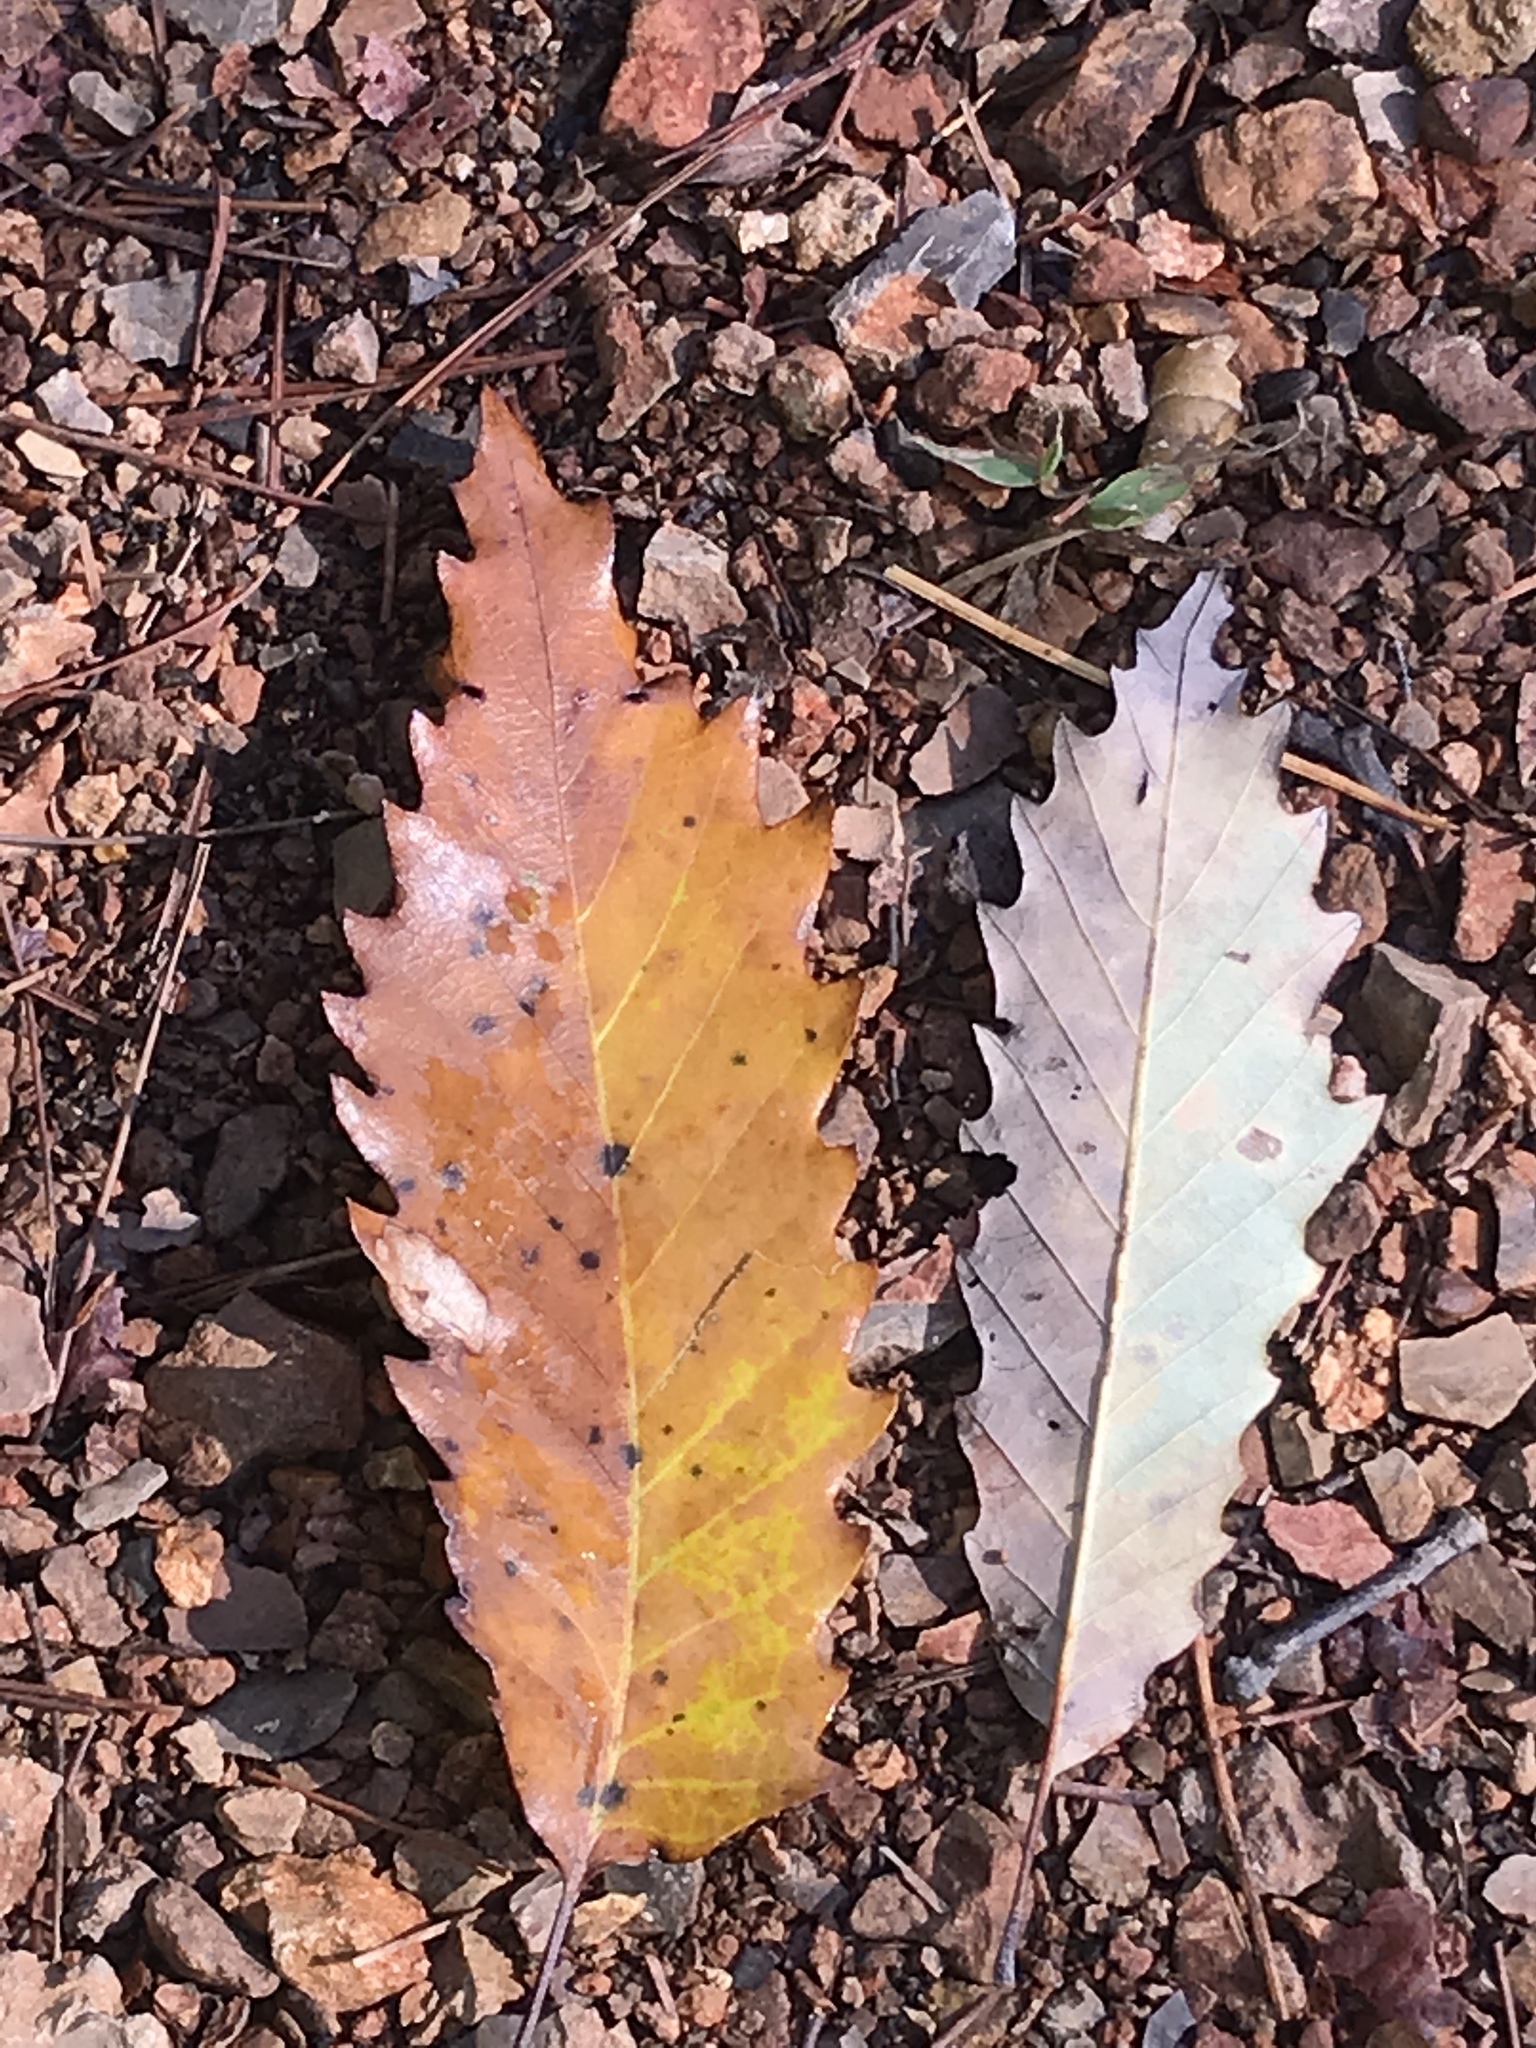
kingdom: Plantae
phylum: Tracheophyta
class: Magnoliopsida
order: Fagales
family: Fagaceae
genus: Quercus
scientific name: Quercus muehlenbergii
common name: Chinkapin oak
